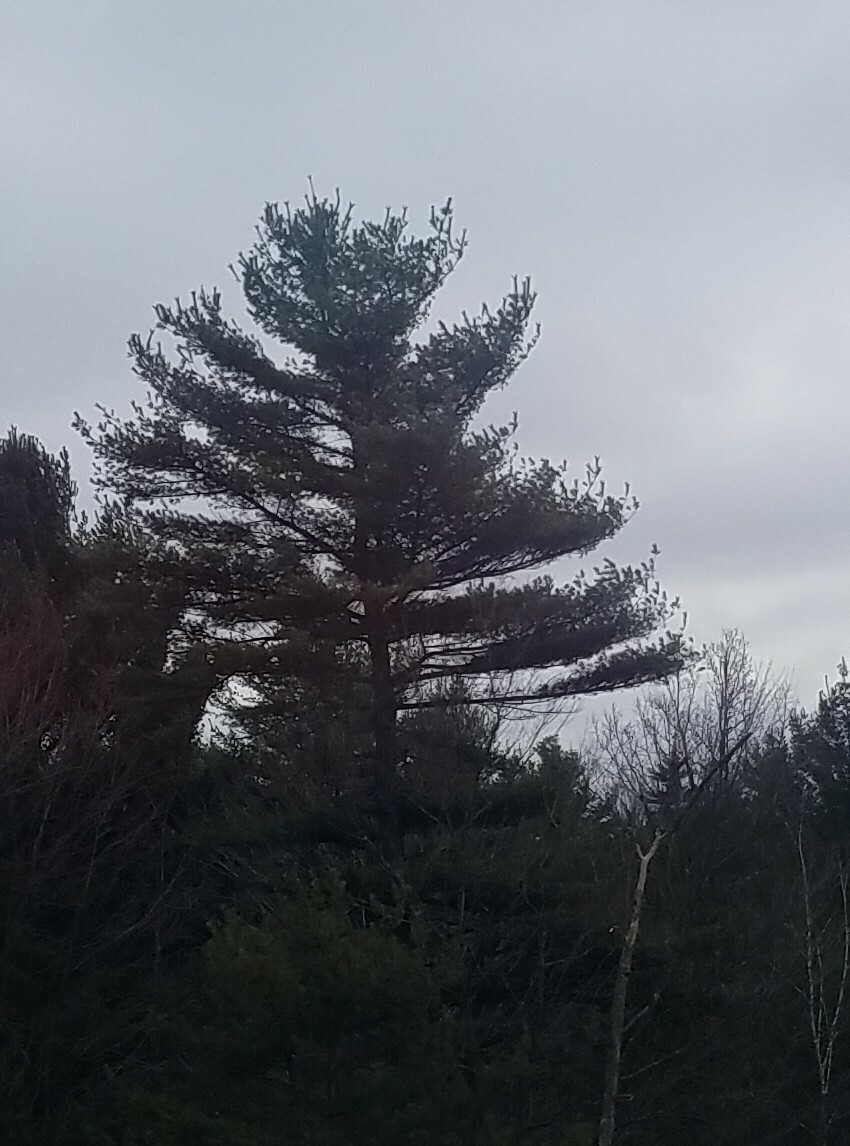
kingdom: Plantae
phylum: Tracheophyta
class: Pinopsida
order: Pinales
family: Pinaceae
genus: Pinus
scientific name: Pinus strobus
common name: Weymouth pine
